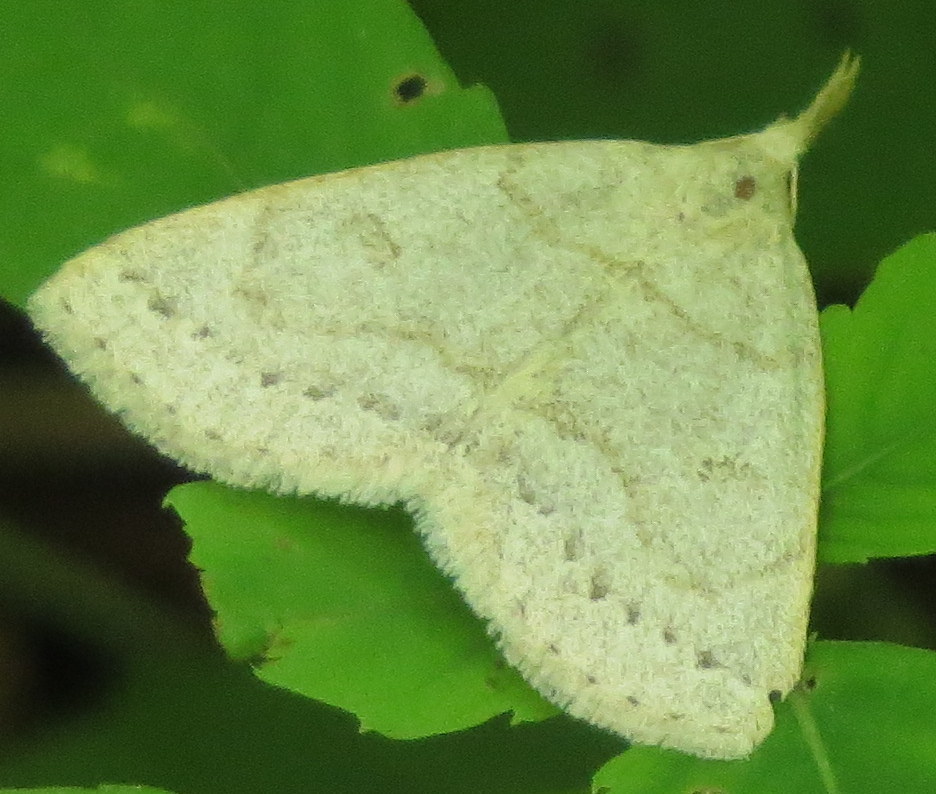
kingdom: Animalia
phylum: Arthropoda
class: Insecta
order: Lepidoptera
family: Erebidae
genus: Macrochilo
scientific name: Macrochilo morbidalis
